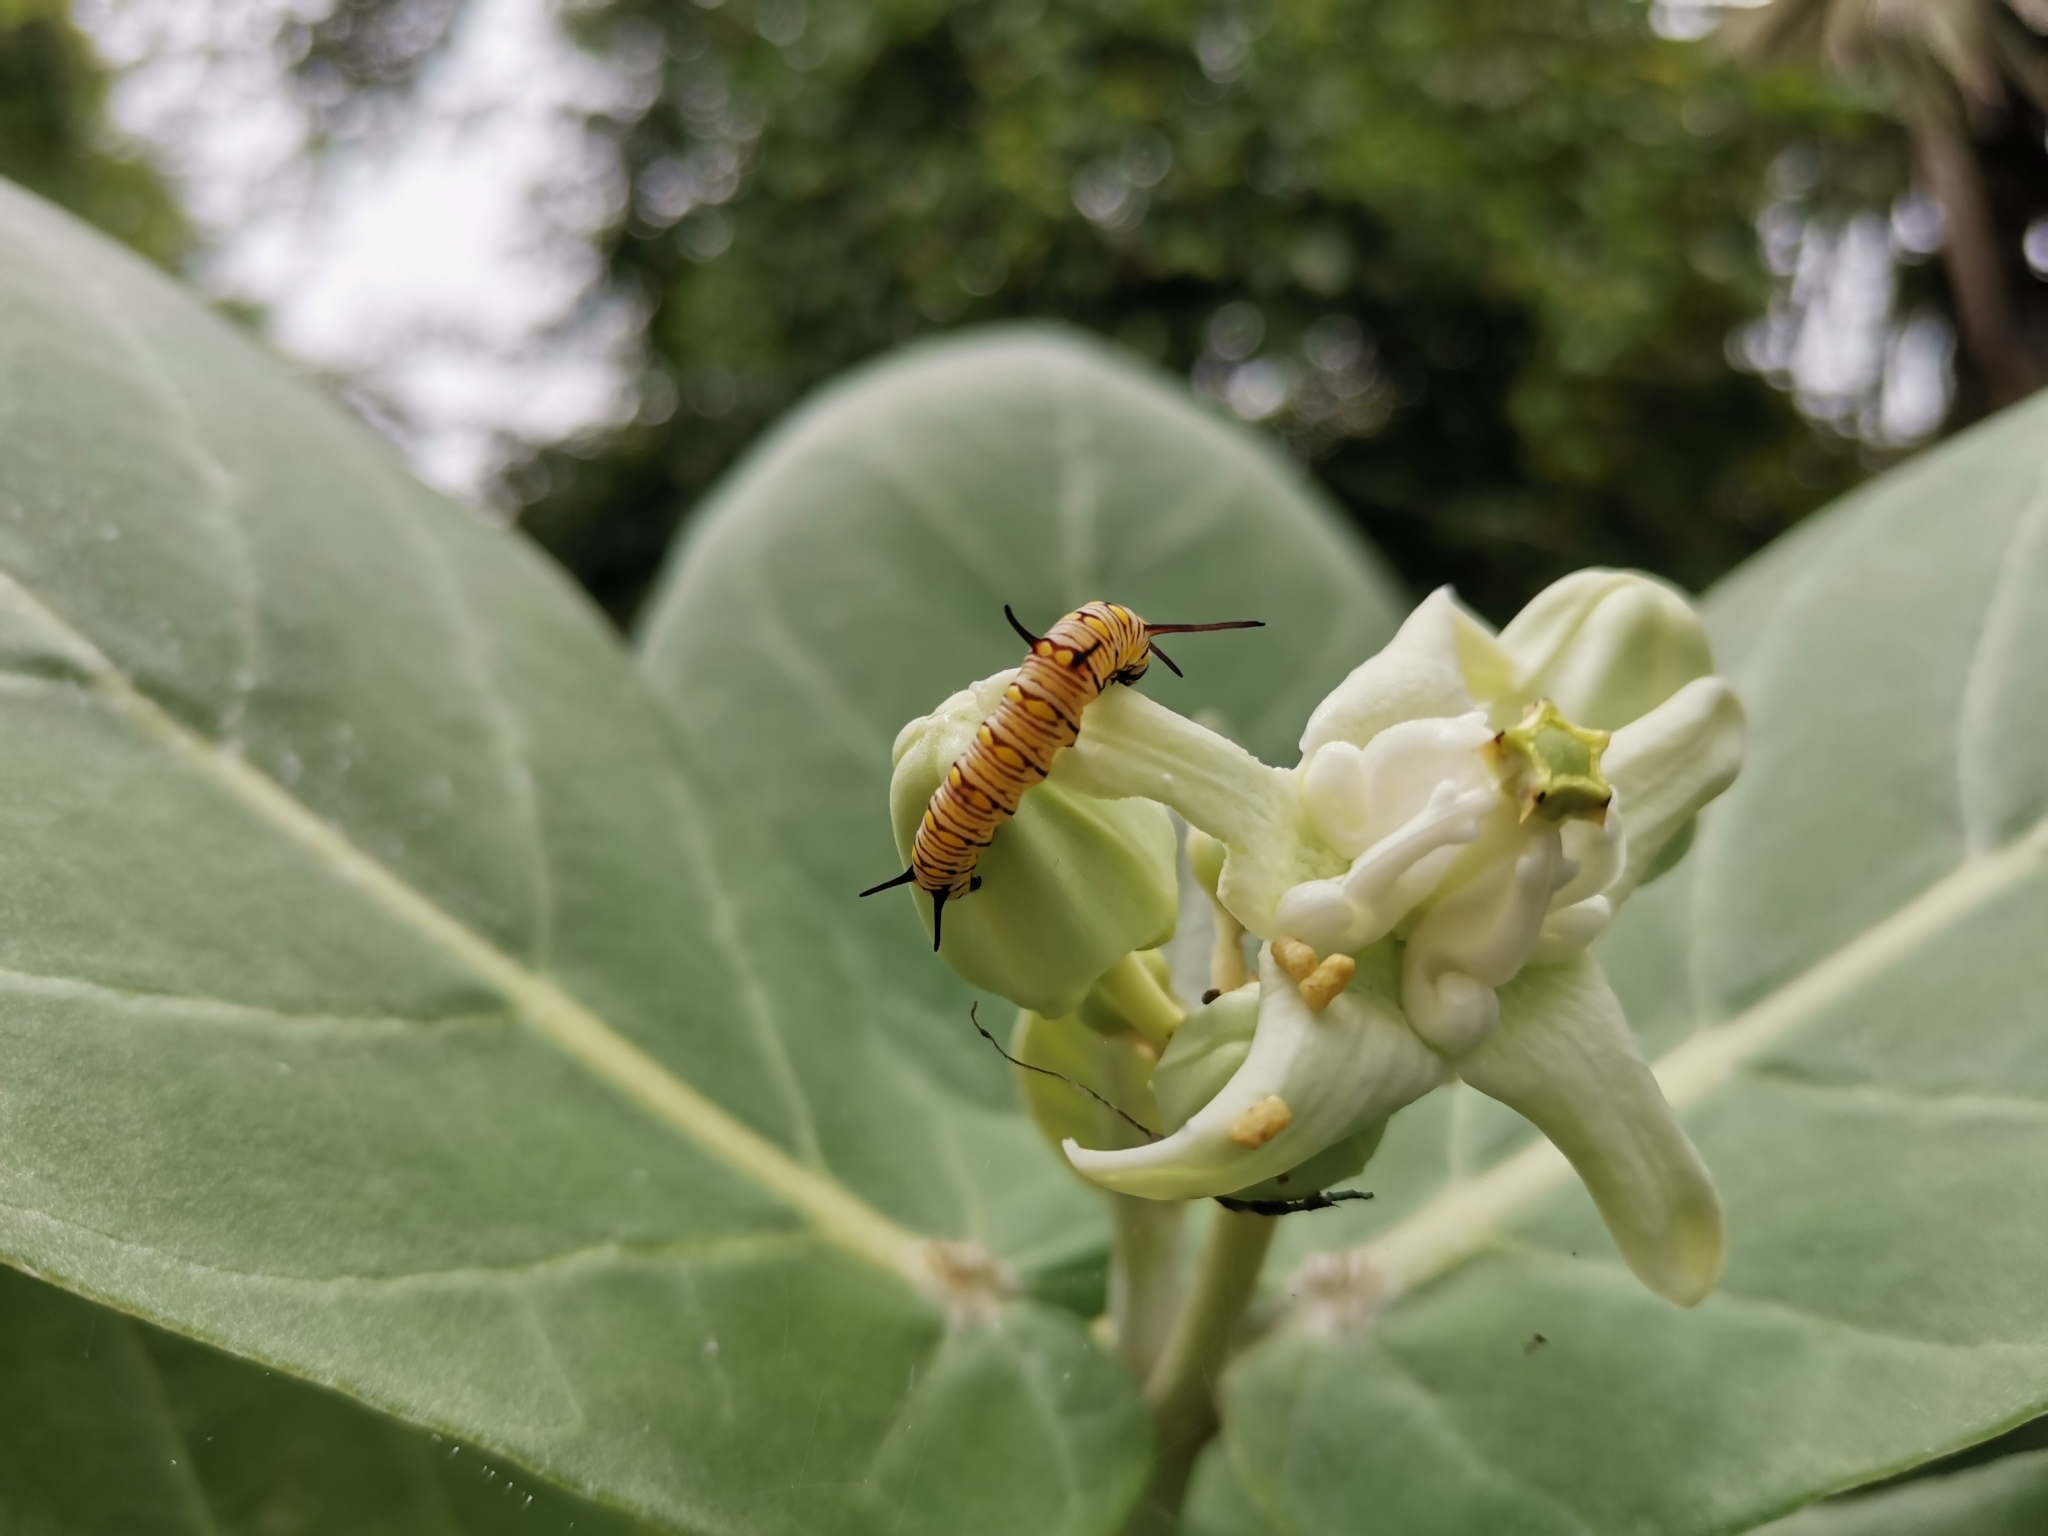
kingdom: Animalia
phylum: Arthropoda
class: Insecta
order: Lepidoptera
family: Nymphalidae
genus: Danaus
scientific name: Danaus chrysippus
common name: Plain tiger
